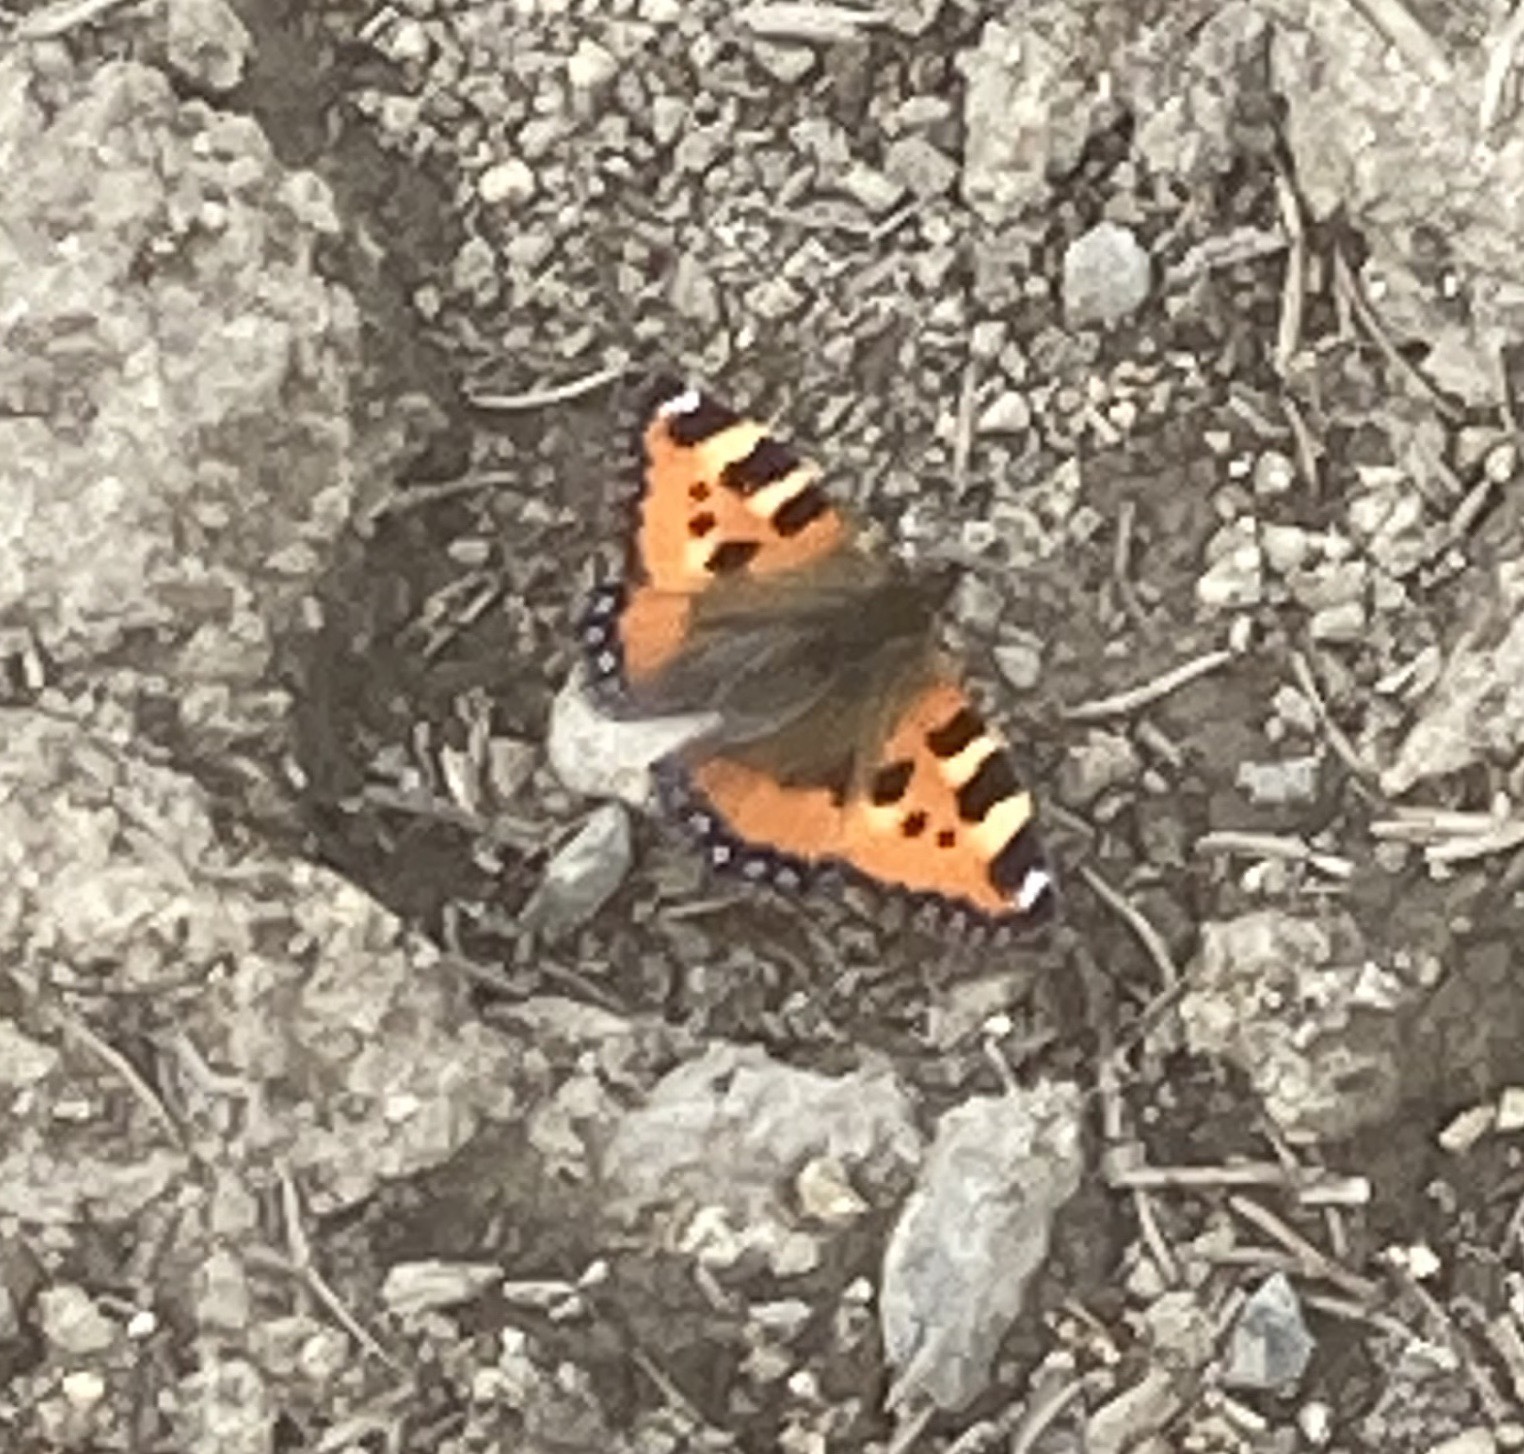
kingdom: Animalia
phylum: Arthropoda
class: Insecta
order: Lepidoptera
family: Nymphalidae
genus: Aglais
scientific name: Aglais urticae
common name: Small tortoiseshell
